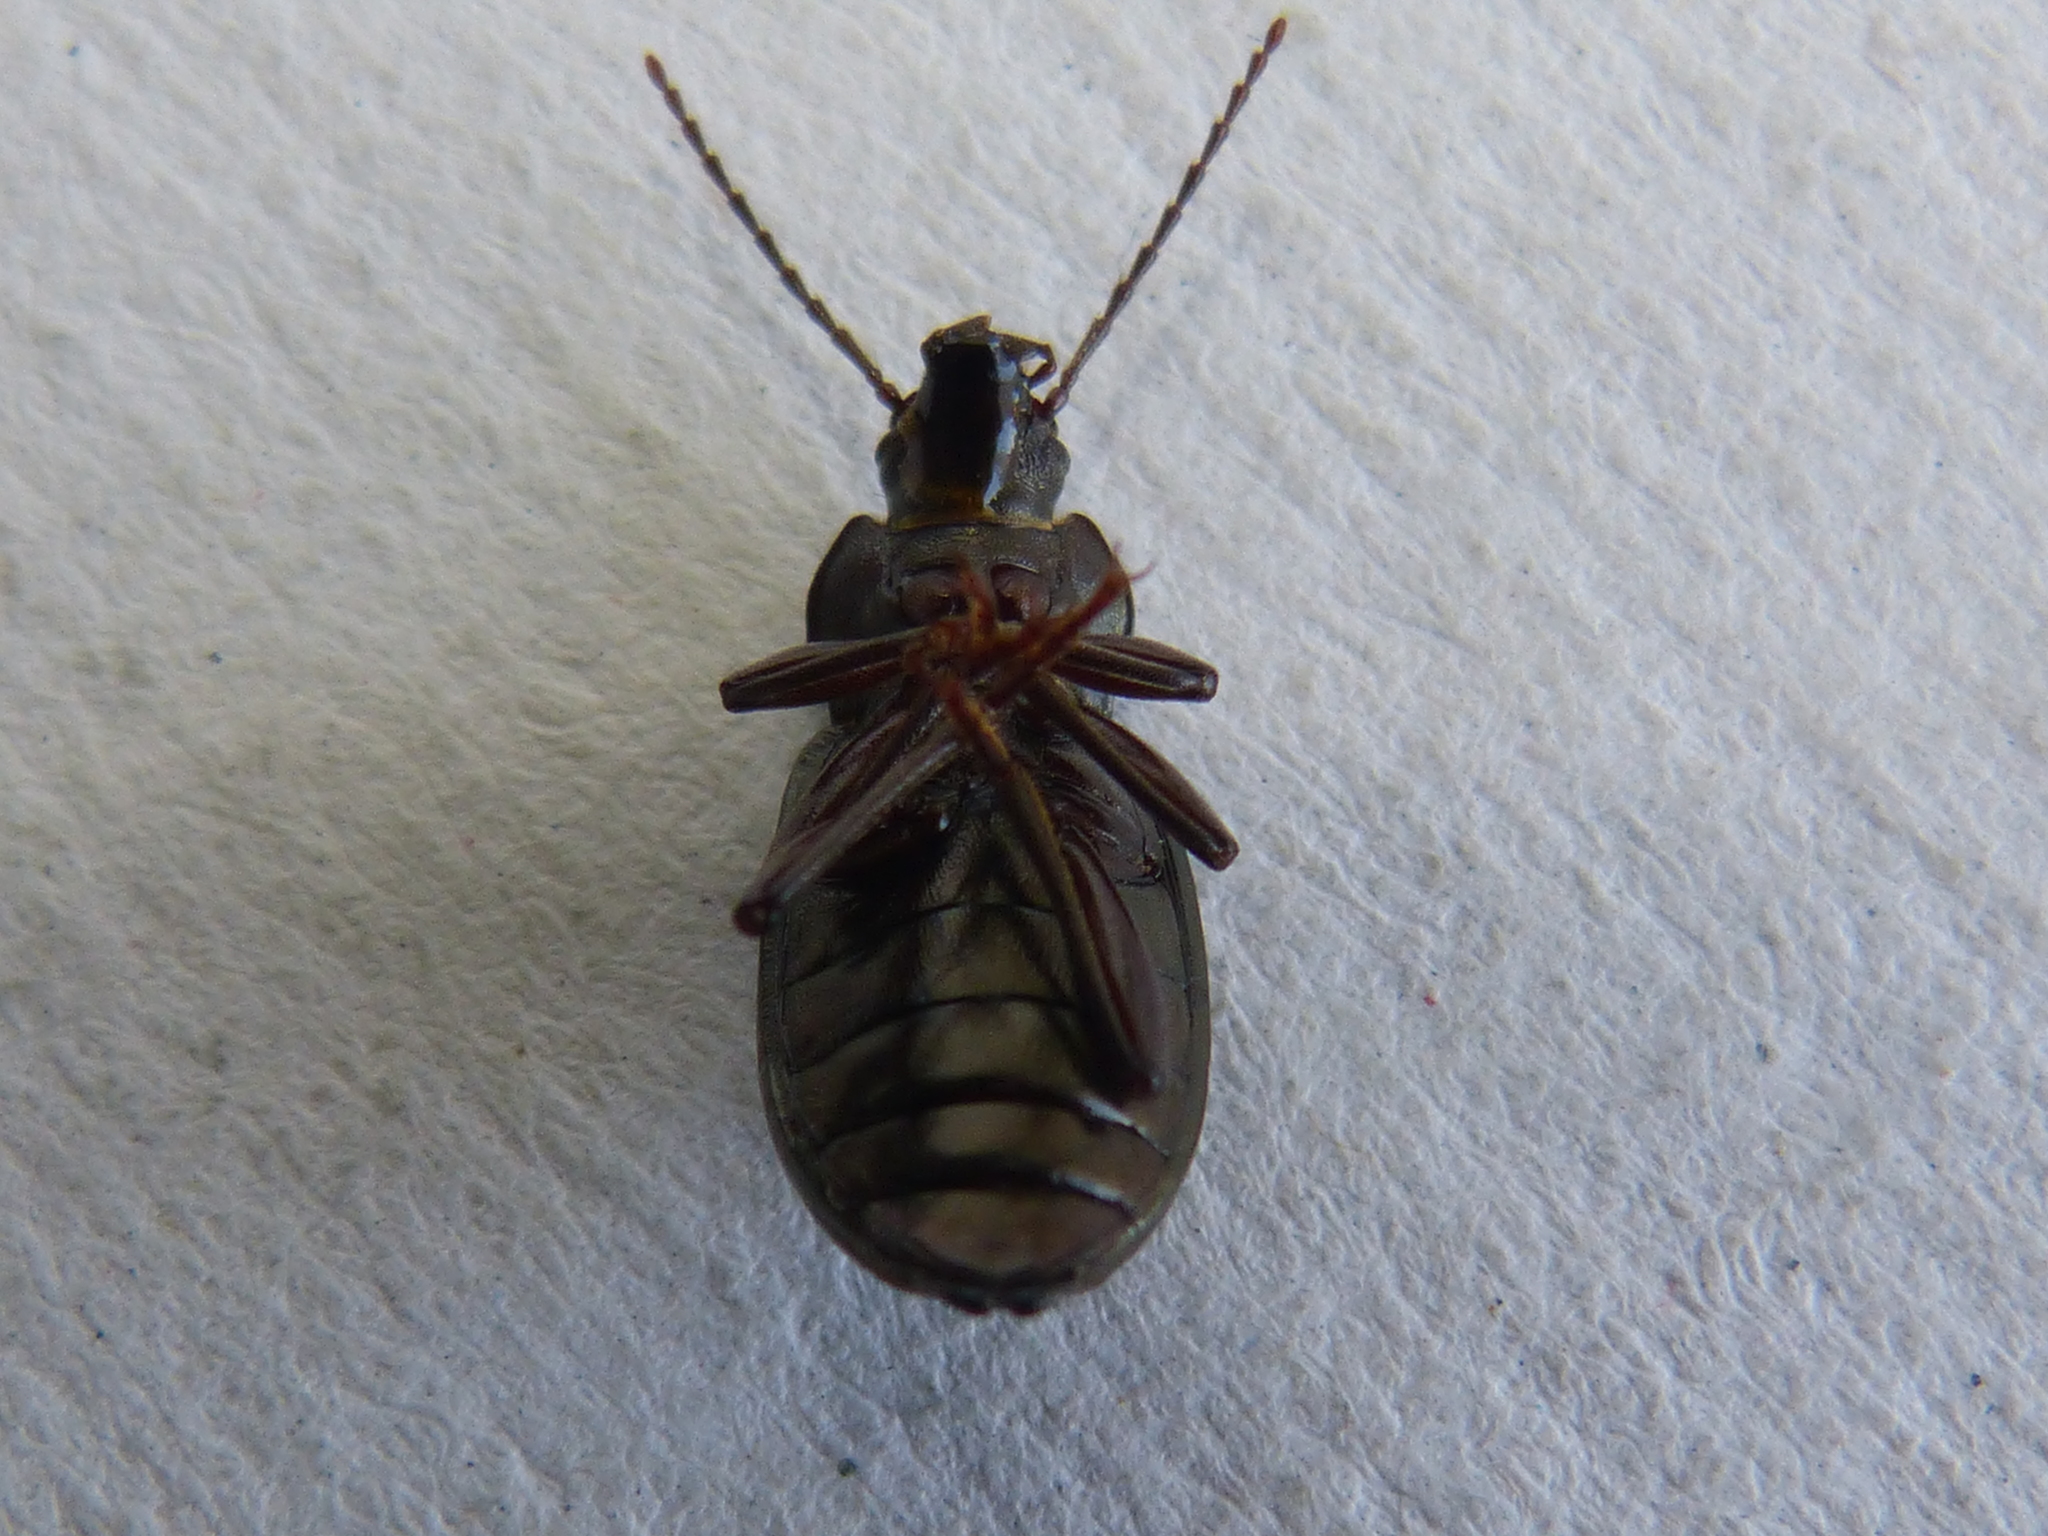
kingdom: Animalia
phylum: Arthropoda
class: Insecta
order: Coleoptera
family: Tenebrionidae
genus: Stenomax
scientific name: Stenomax aeneus
